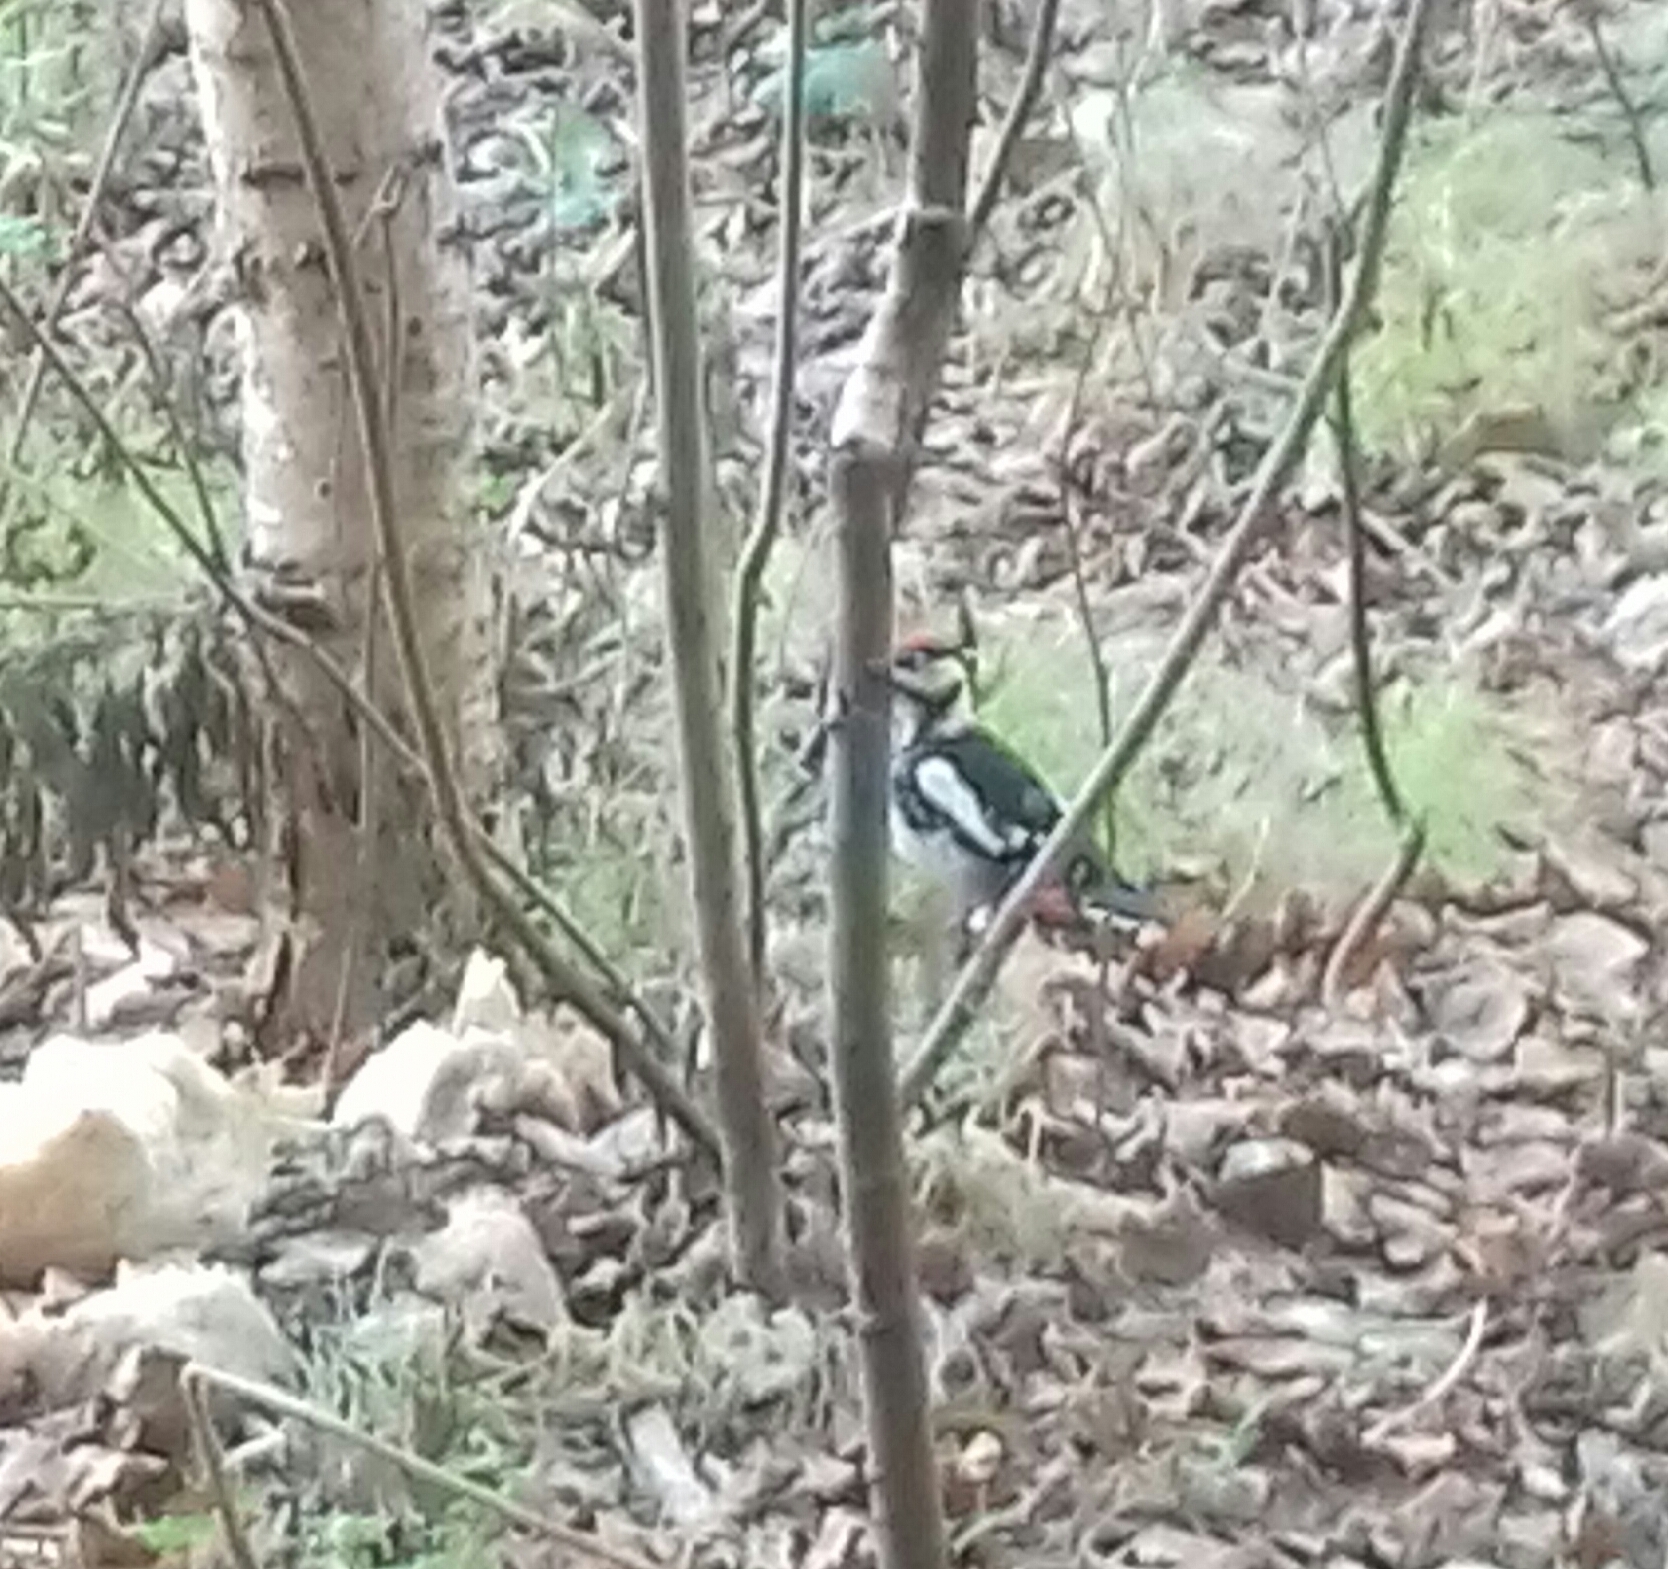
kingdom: Animalia
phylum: Chordata
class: Aves
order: Piciformes
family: Picidae
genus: Dendrocopos
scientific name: Dendrocopos major
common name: Great spotted woodpecker
